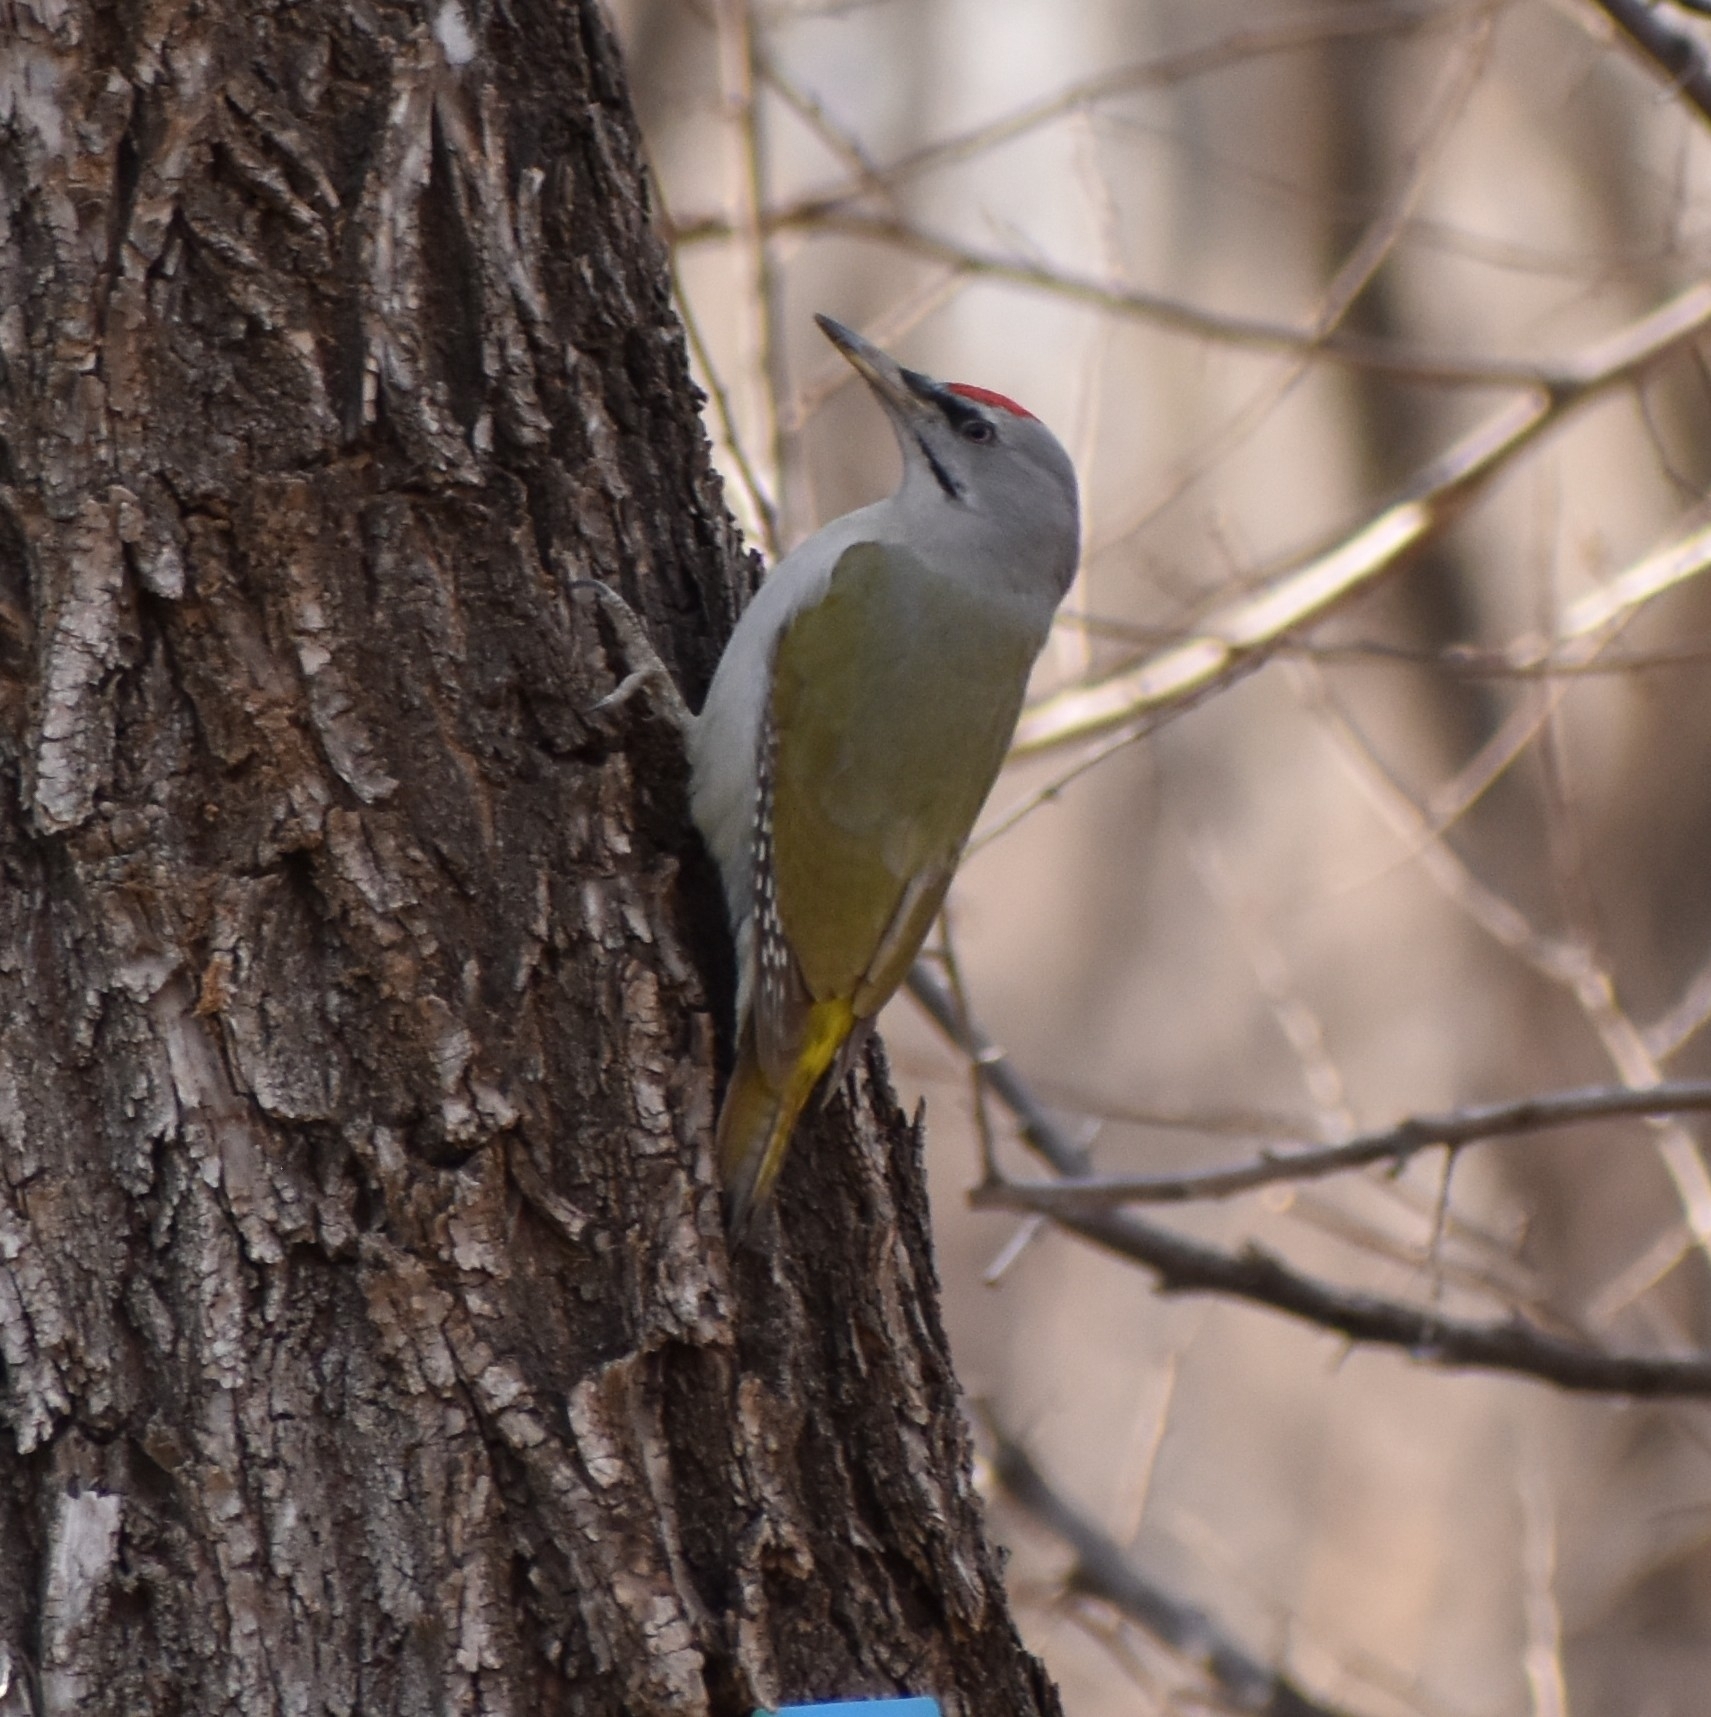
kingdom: Animalia
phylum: Chordata
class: Aves
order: Piciformes
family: Picidae
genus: Picus
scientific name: Picus canus
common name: Grey-headed woodpecker
